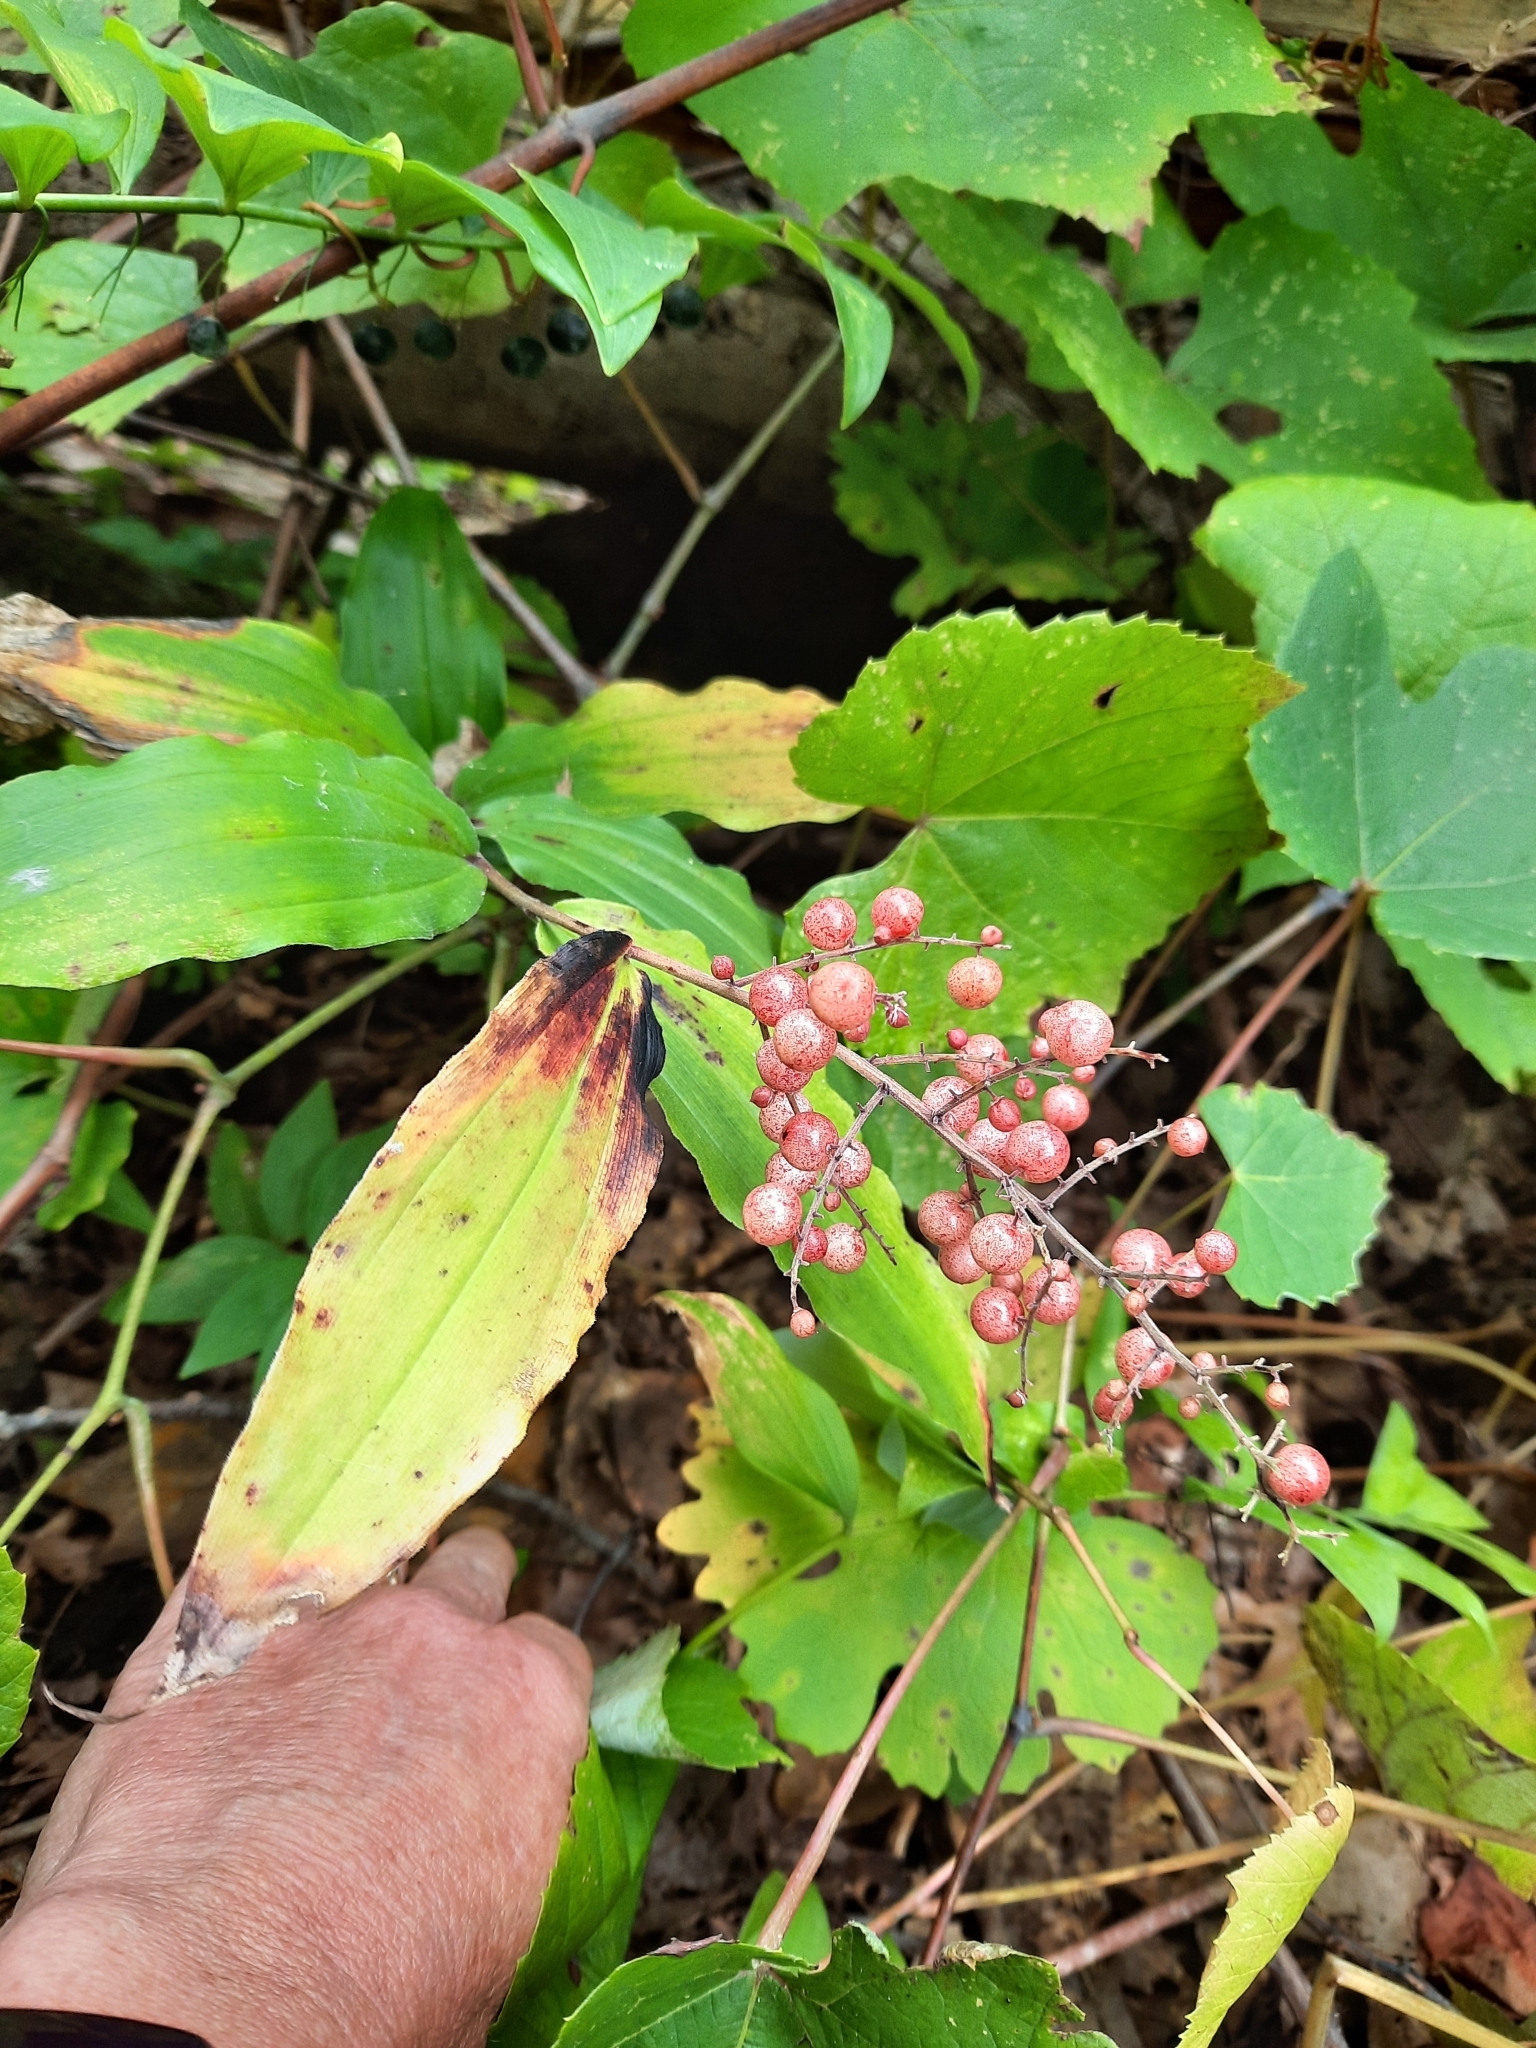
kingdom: Plantae
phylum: Tracheophyta
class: Liliopsida
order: Asparagales
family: Asparagaceae
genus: Maianthemum
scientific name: Maianthemum racemosum
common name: False spikenard
